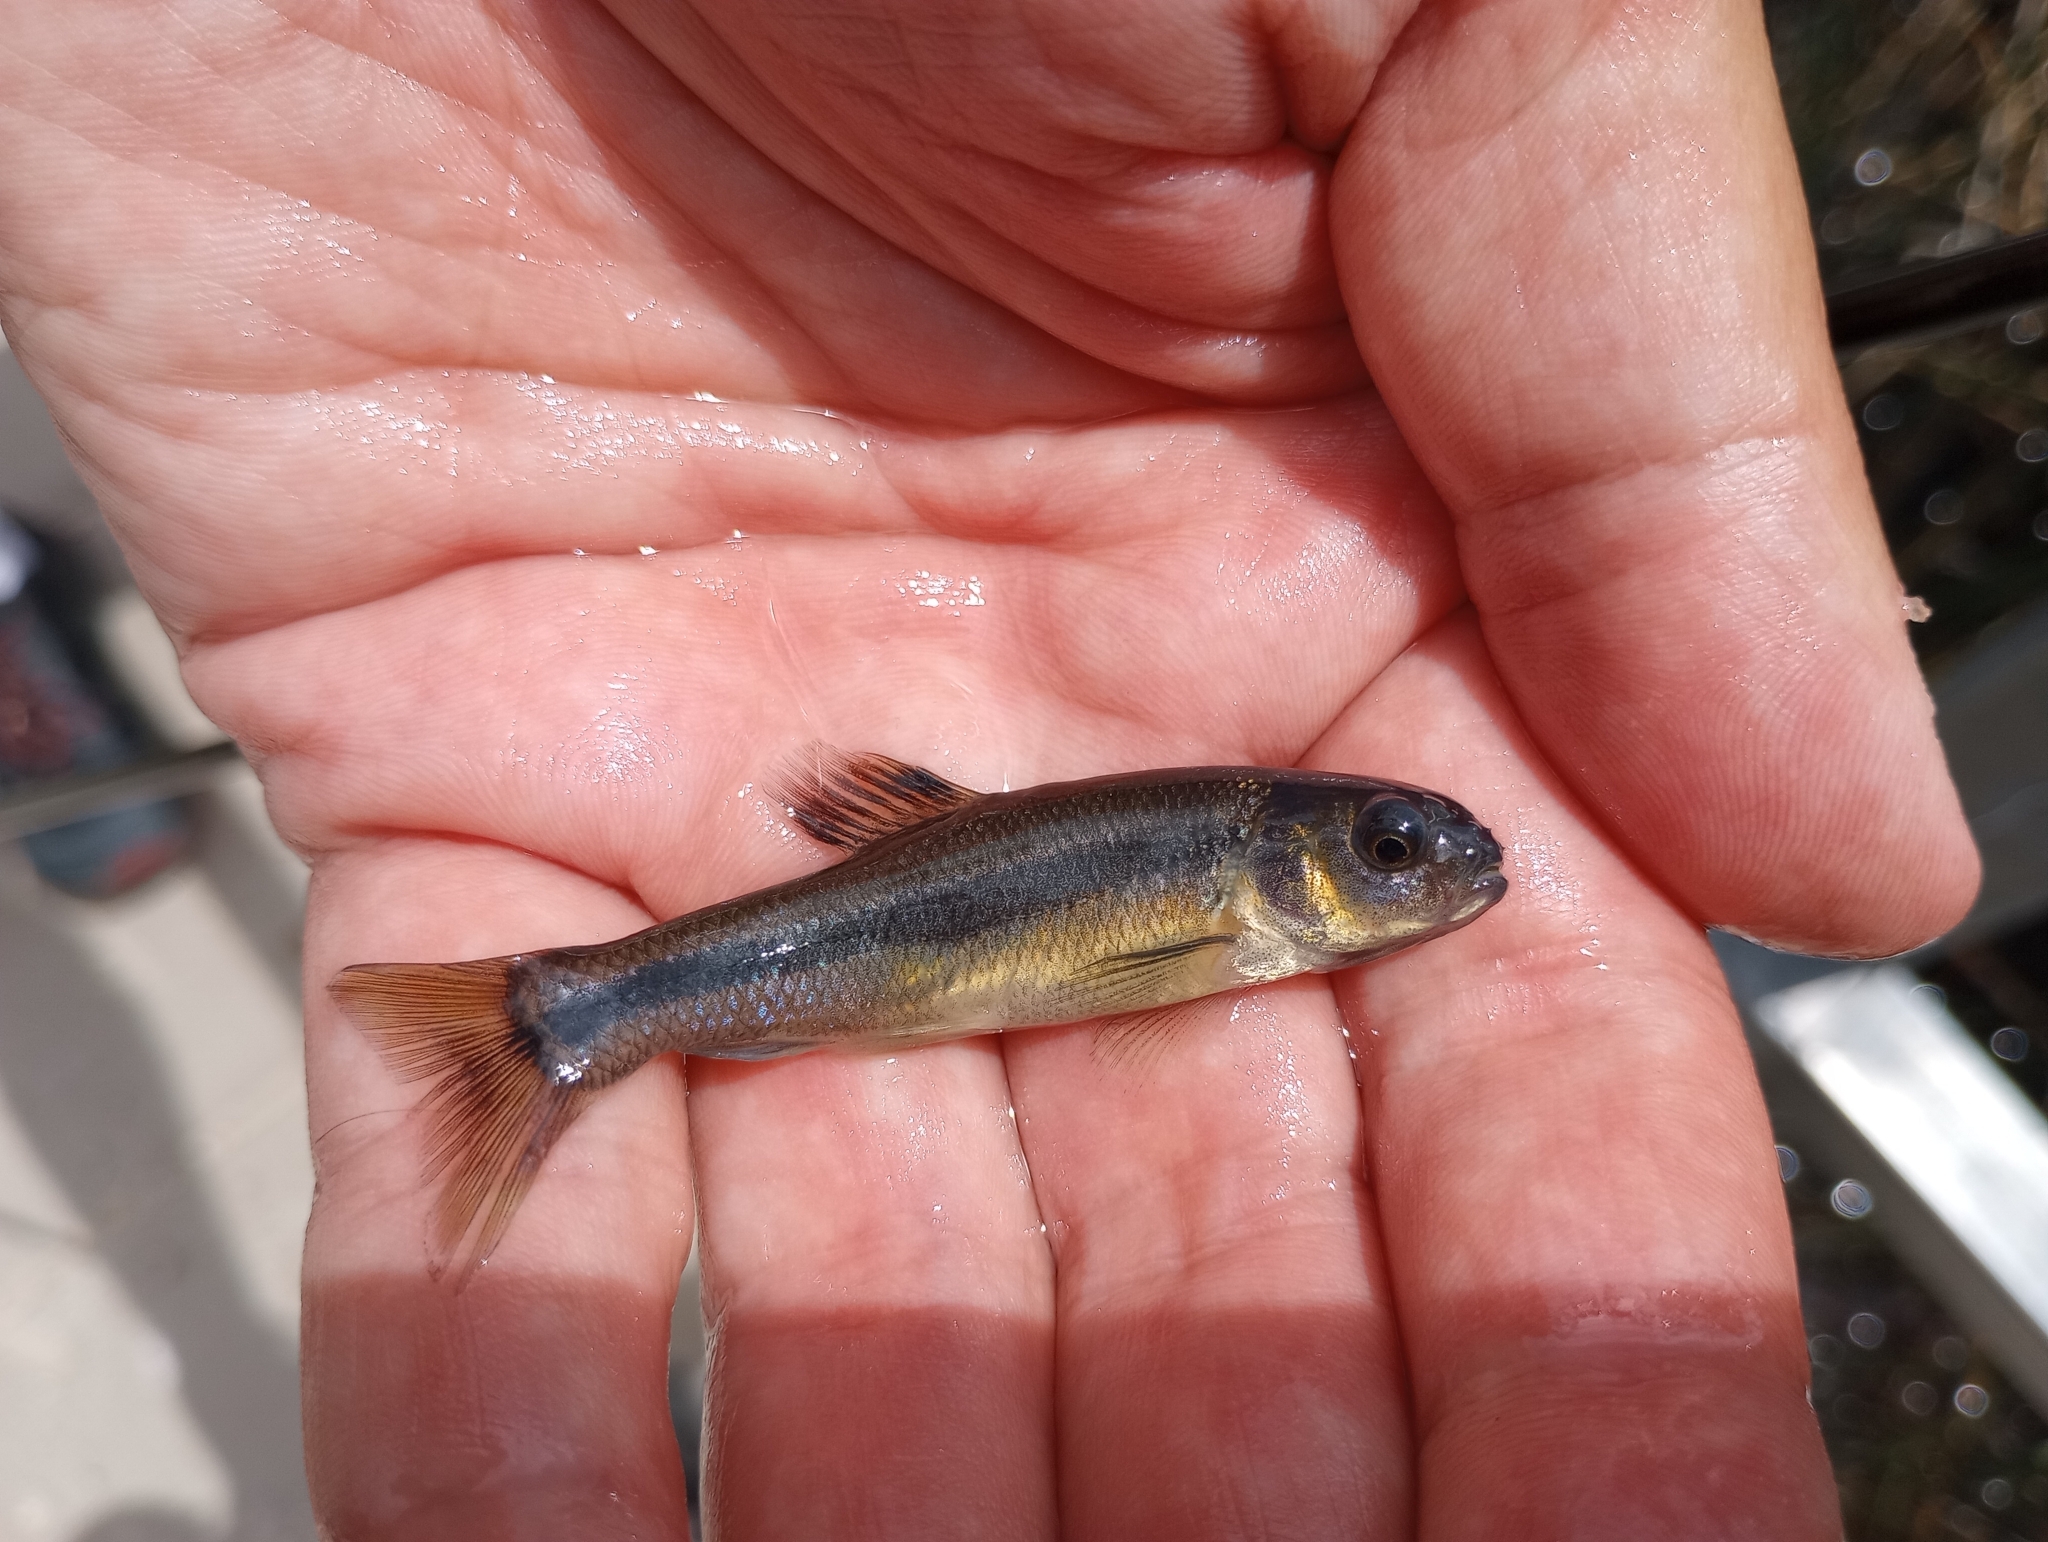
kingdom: Animalia
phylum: Chordata
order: Cypriniformes
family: Cyprinidae
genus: Pimephales
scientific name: Pimephales promelas
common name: Fathead minnow
